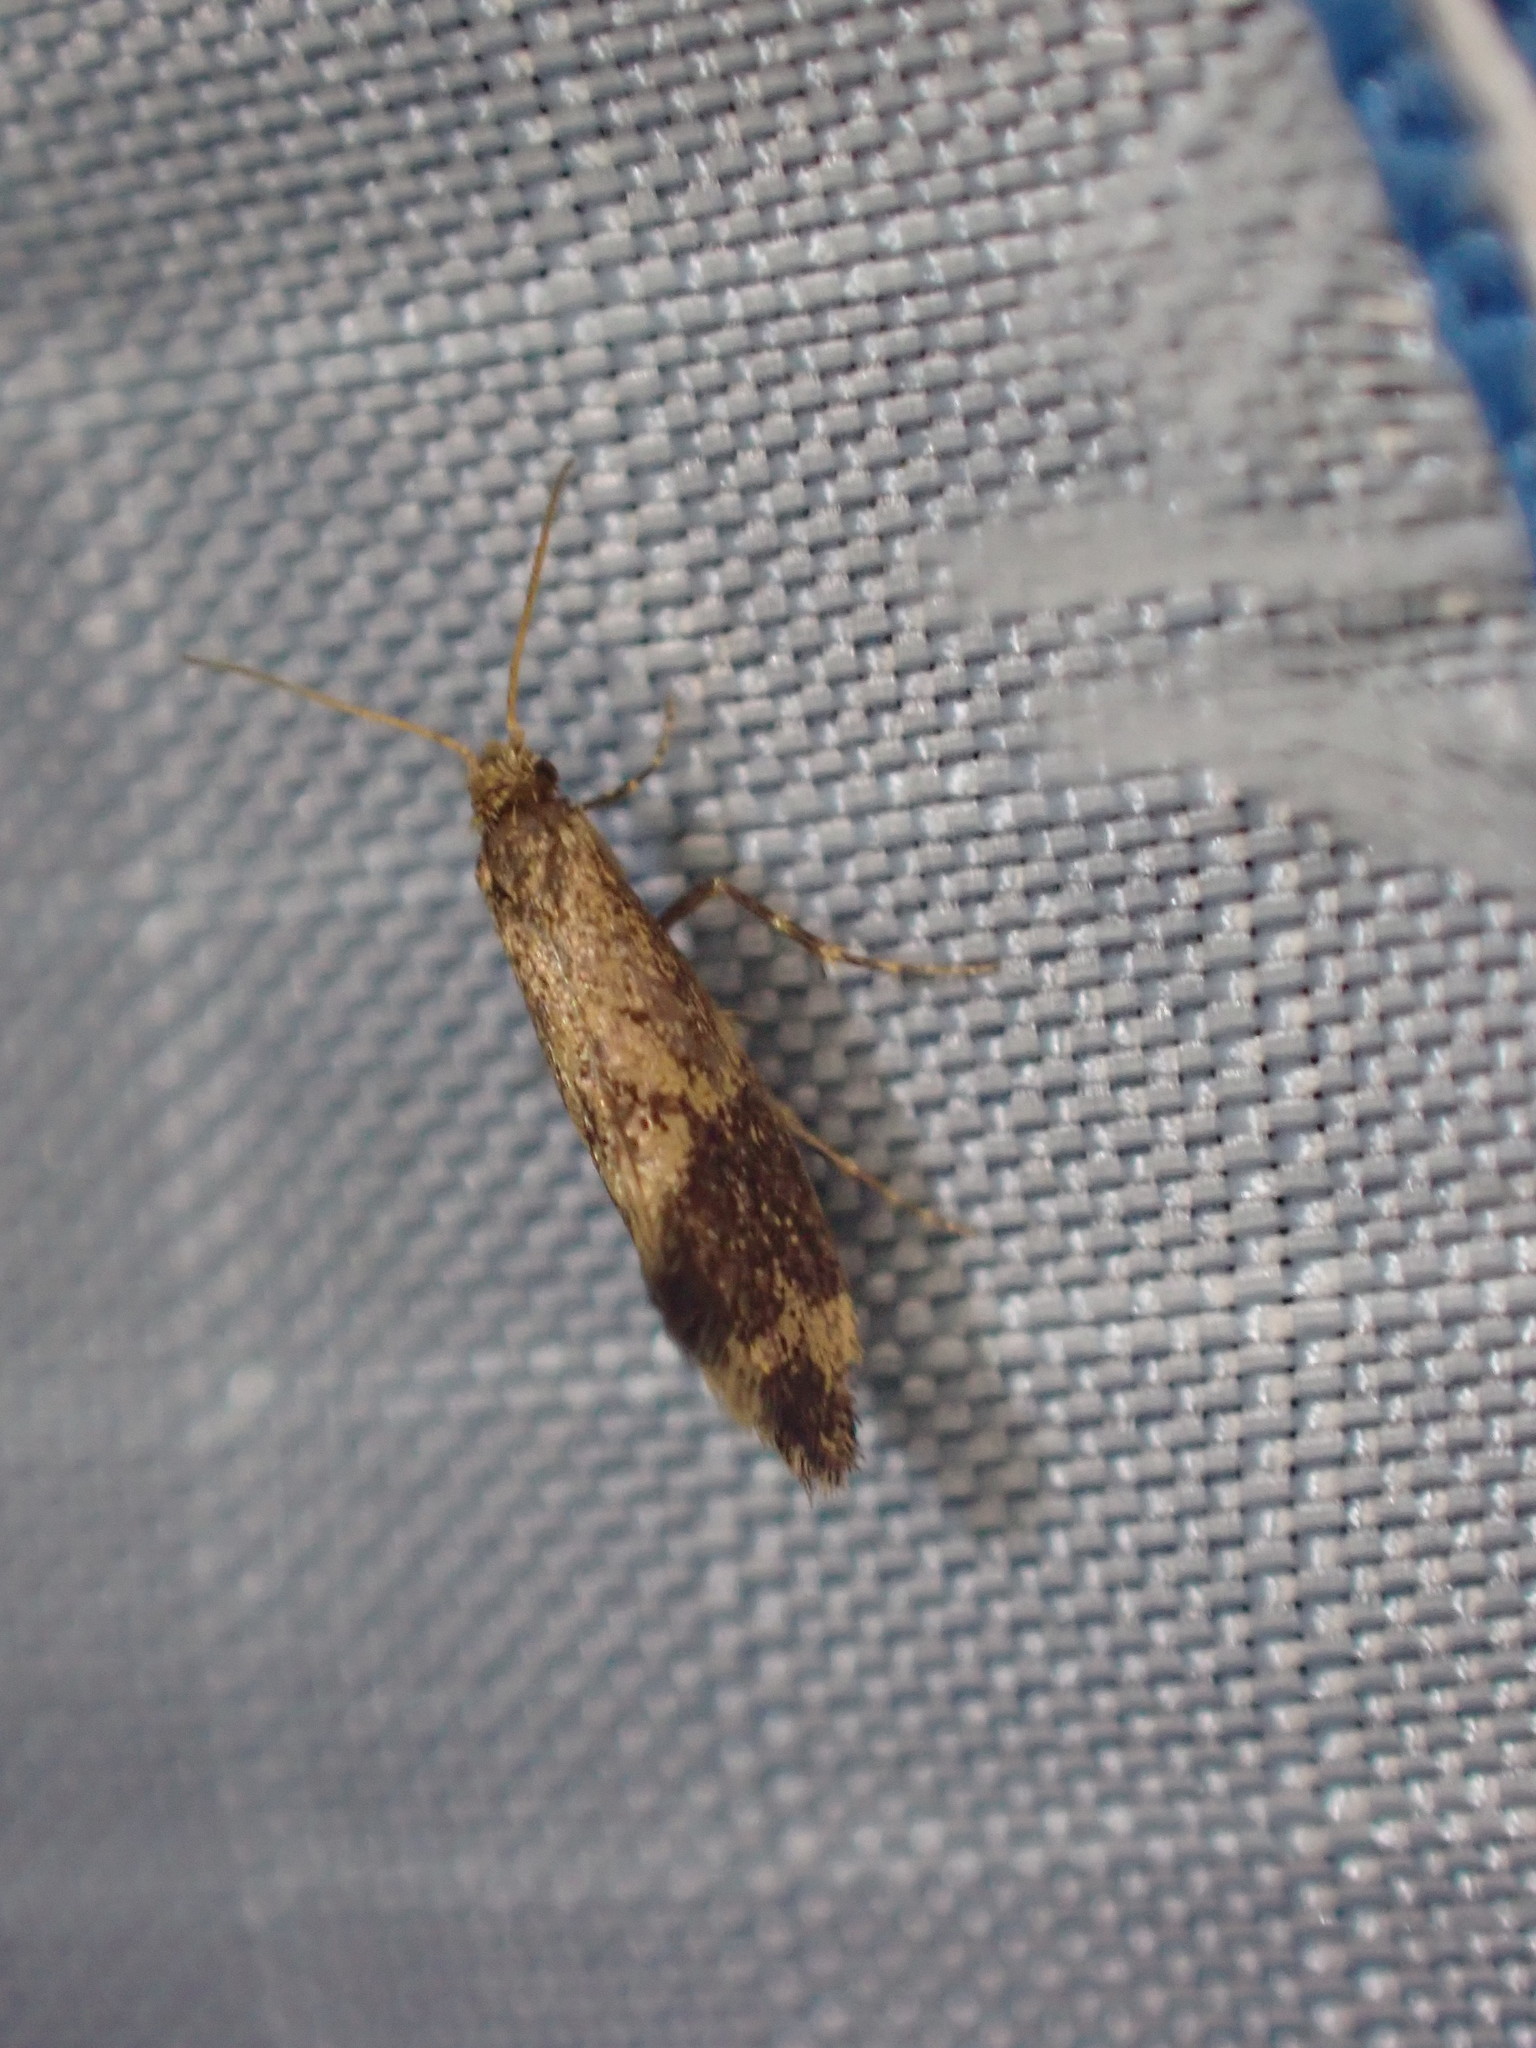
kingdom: Animalia
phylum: Arthropoda
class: Insecta
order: Lepidoptera
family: Mnesarchaeidae
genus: Mnesarchaea
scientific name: Mnesarchaea hudsoni
